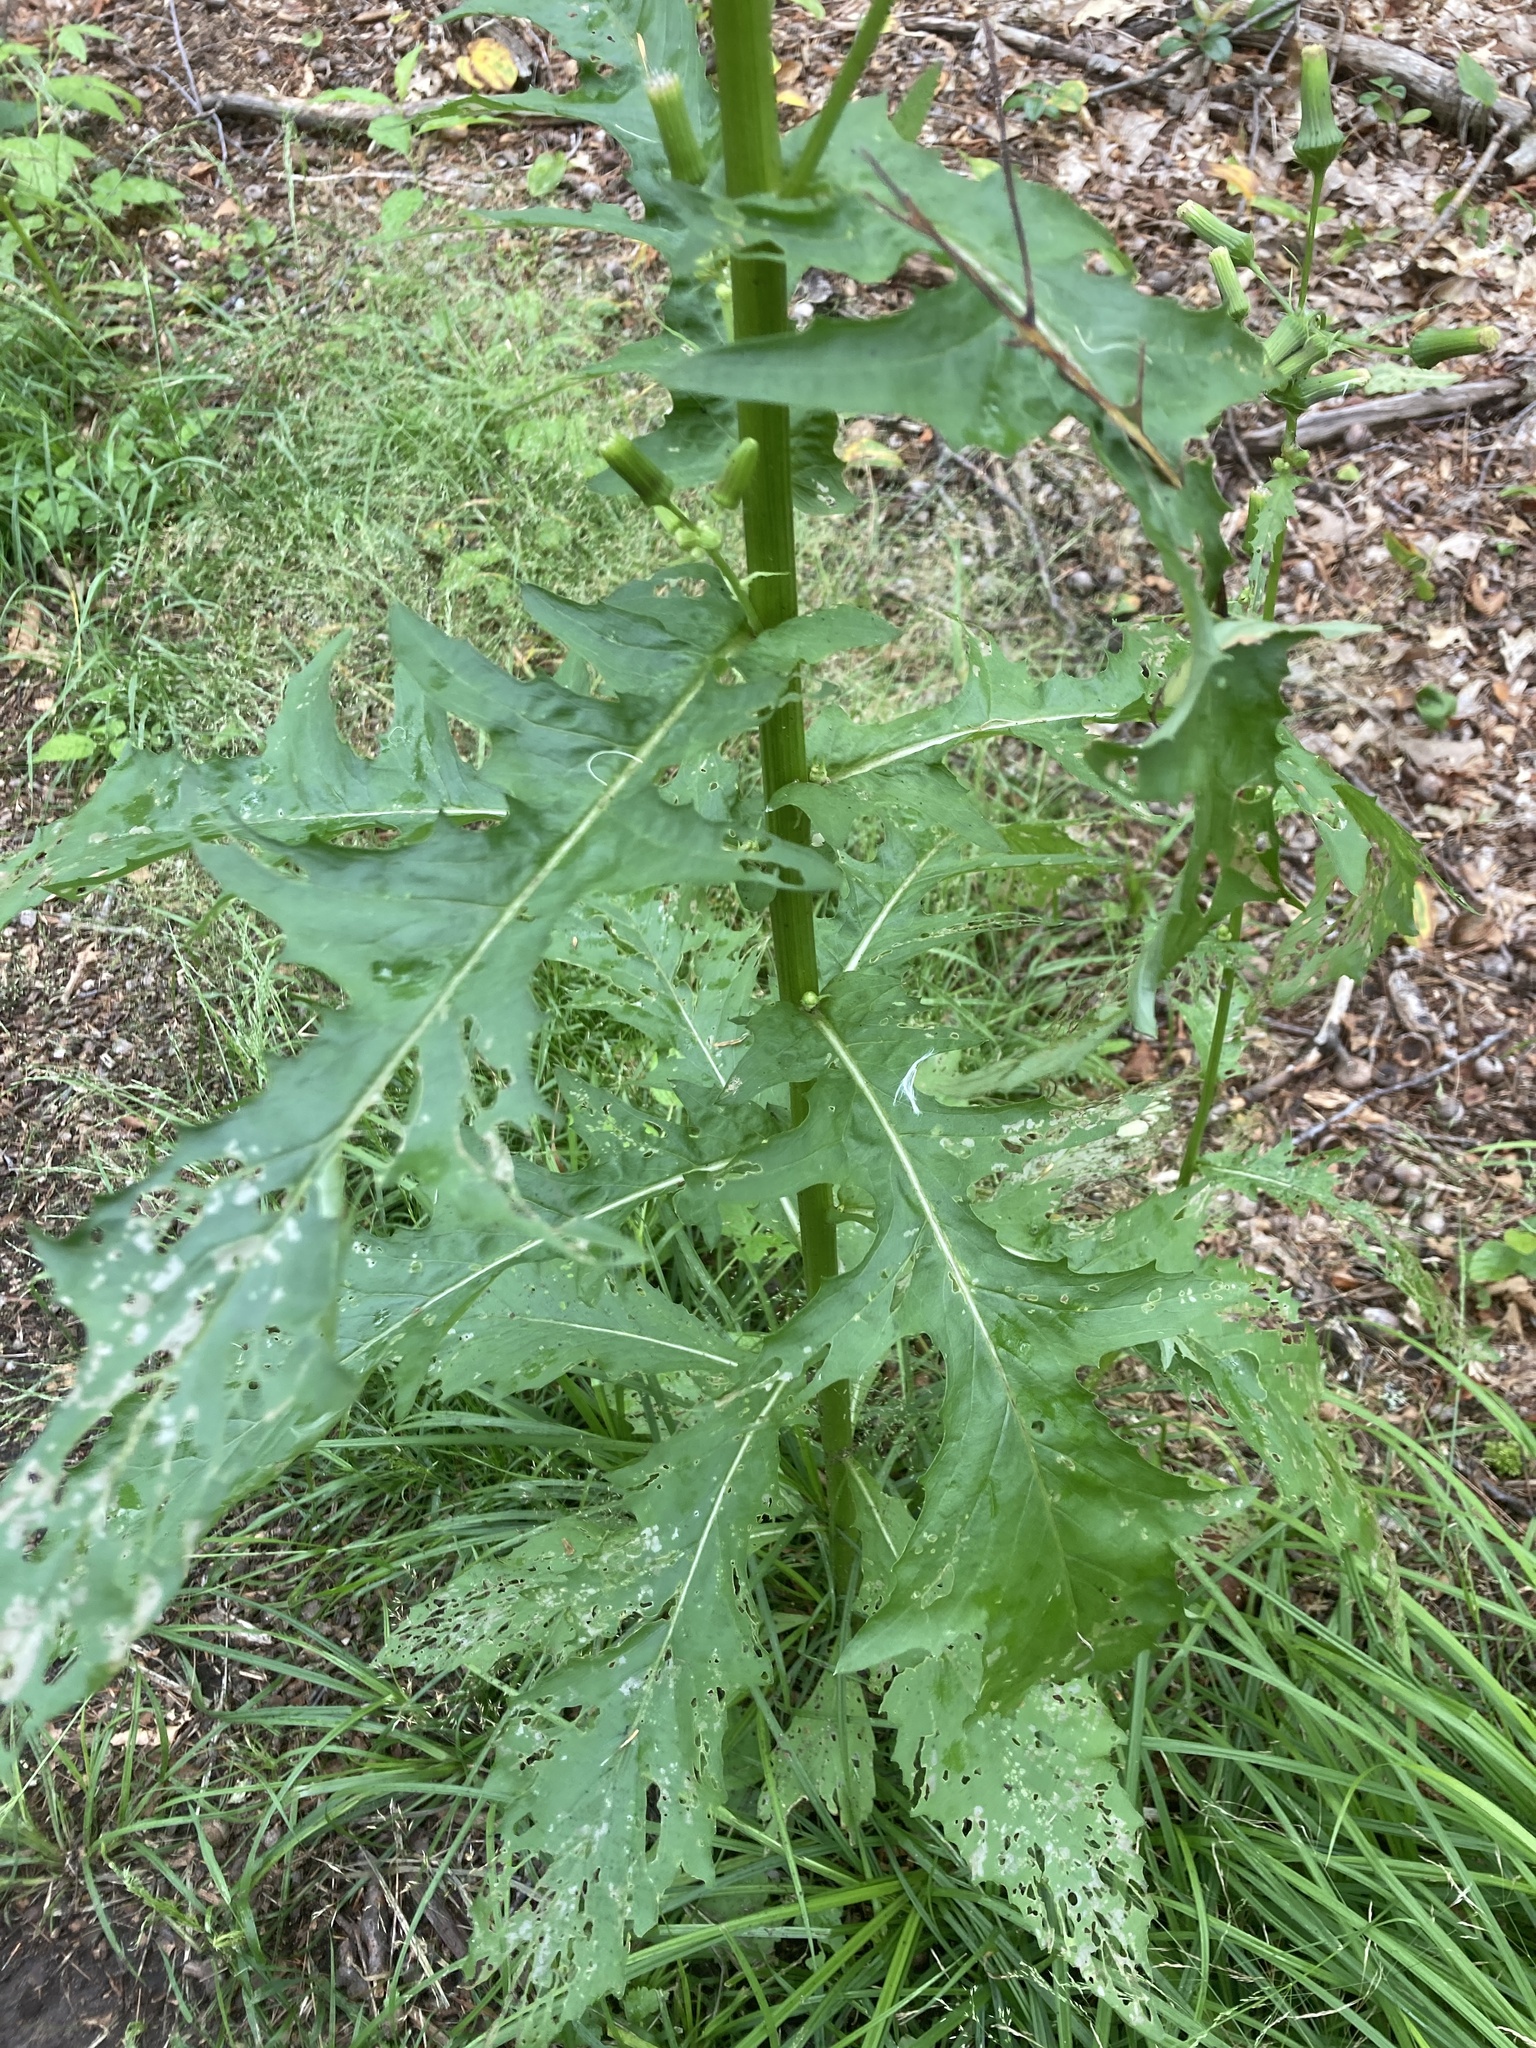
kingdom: Plantae
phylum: Tracheophyta
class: Magnoliopsida
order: Asterales
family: Asteraceae
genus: Erechtites
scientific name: Erechtites hieraciifolius
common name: American burnweed
